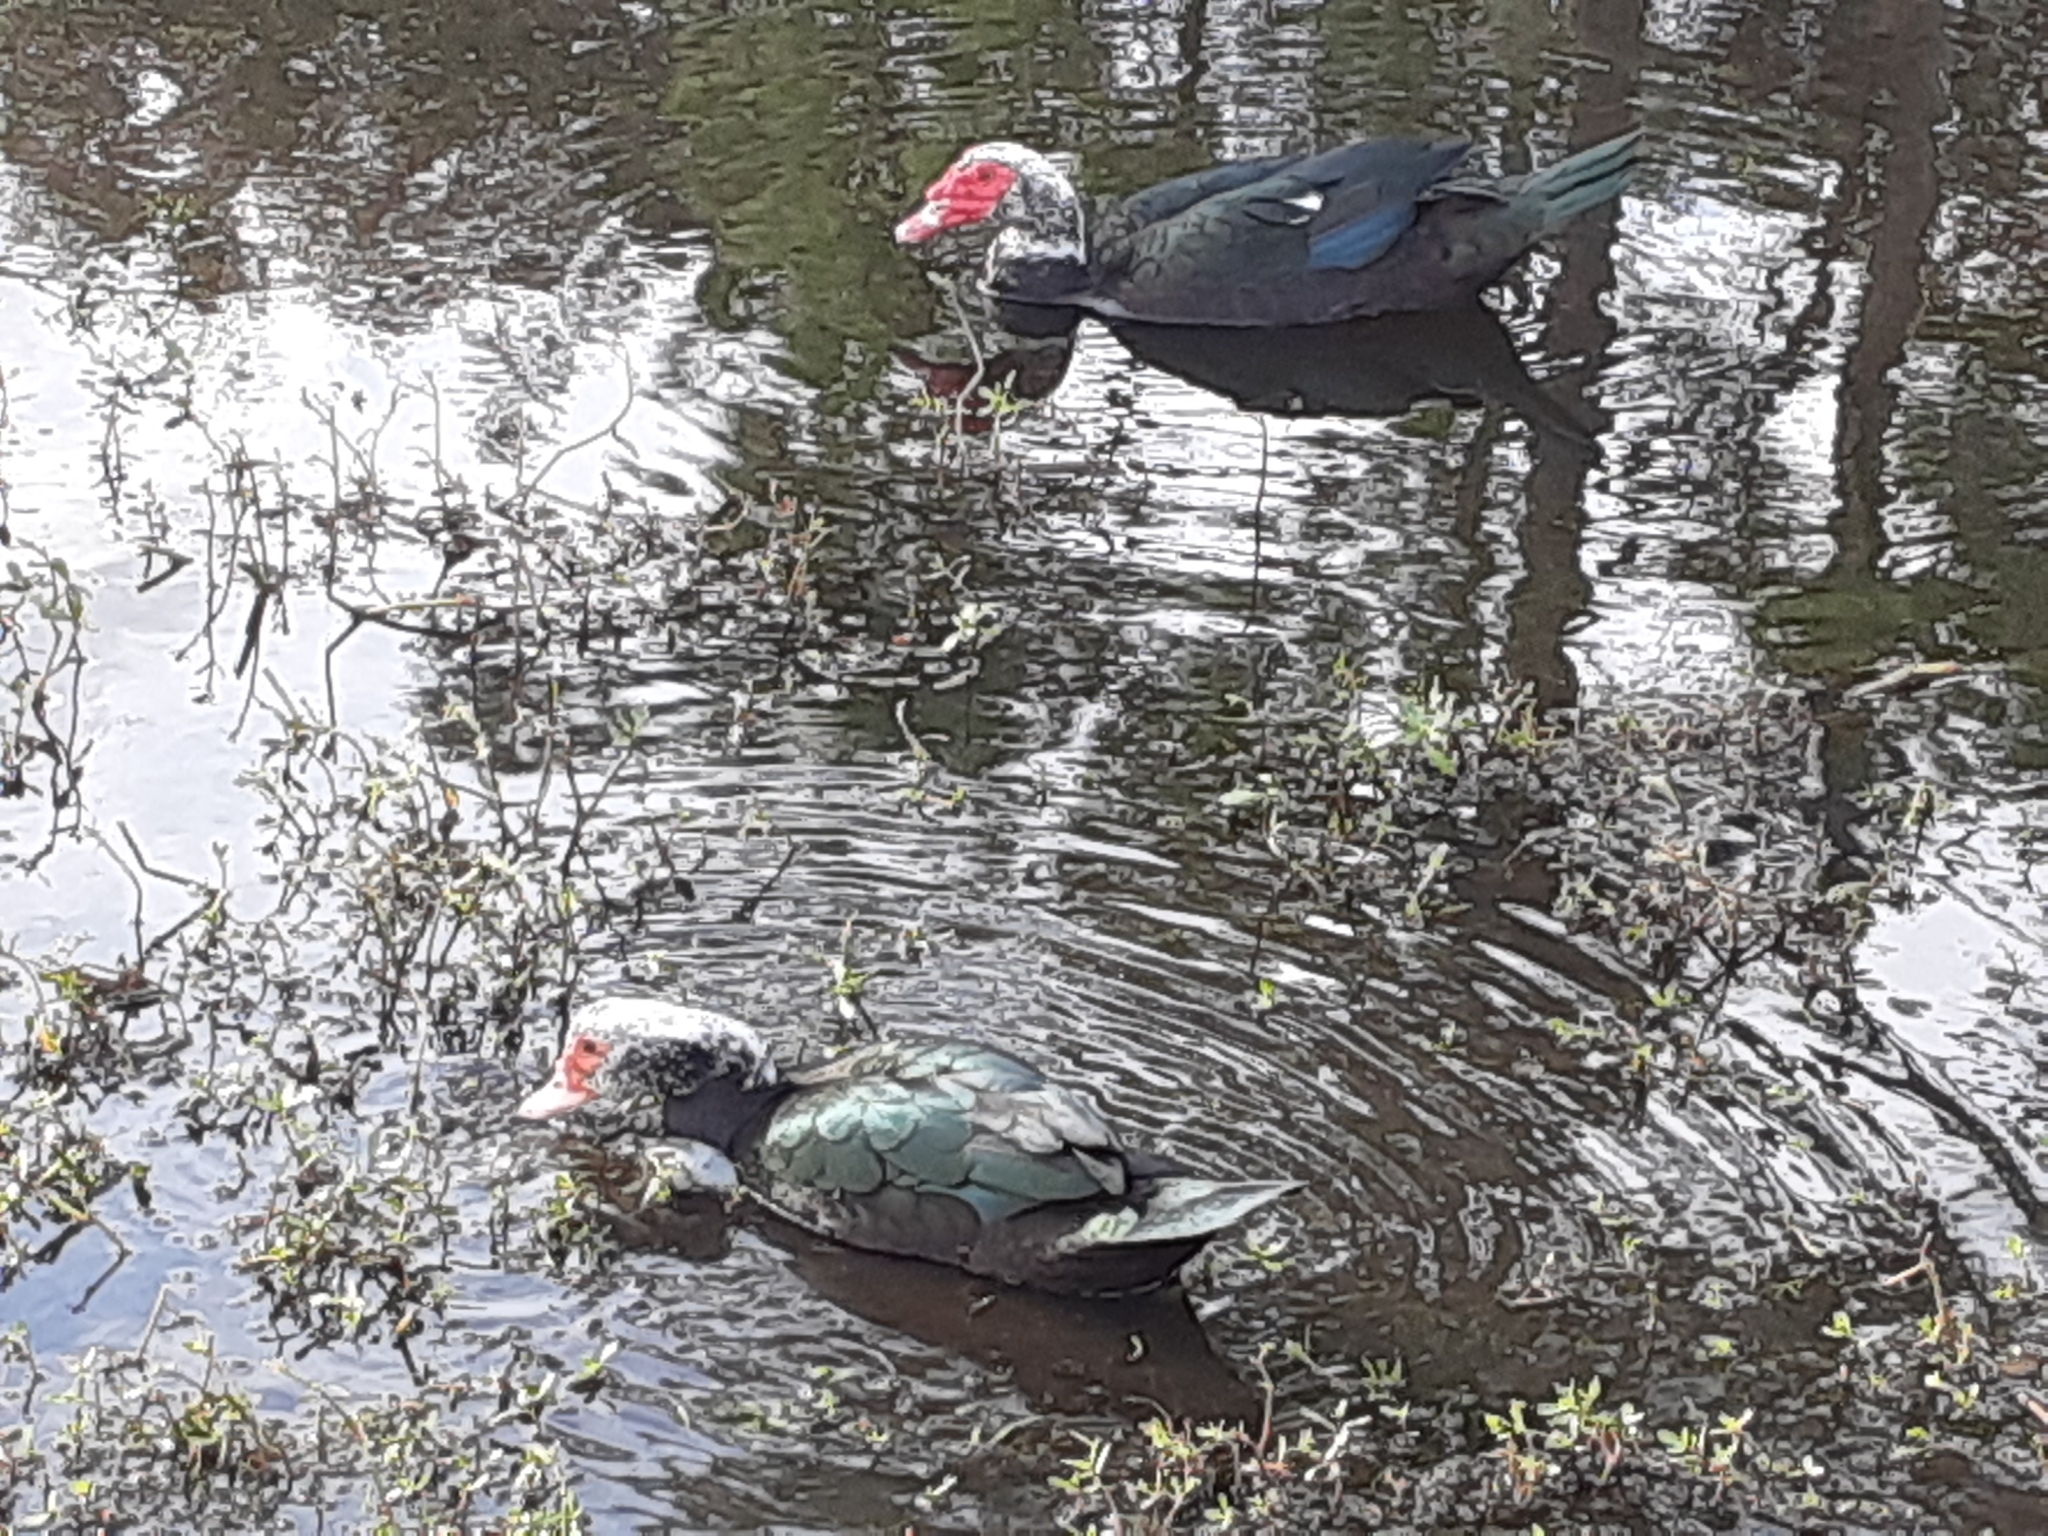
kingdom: Animalia
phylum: Chordata
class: Aves
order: Anseriformes
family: Anatidae
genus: Cairina
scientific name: Cairina moschata
